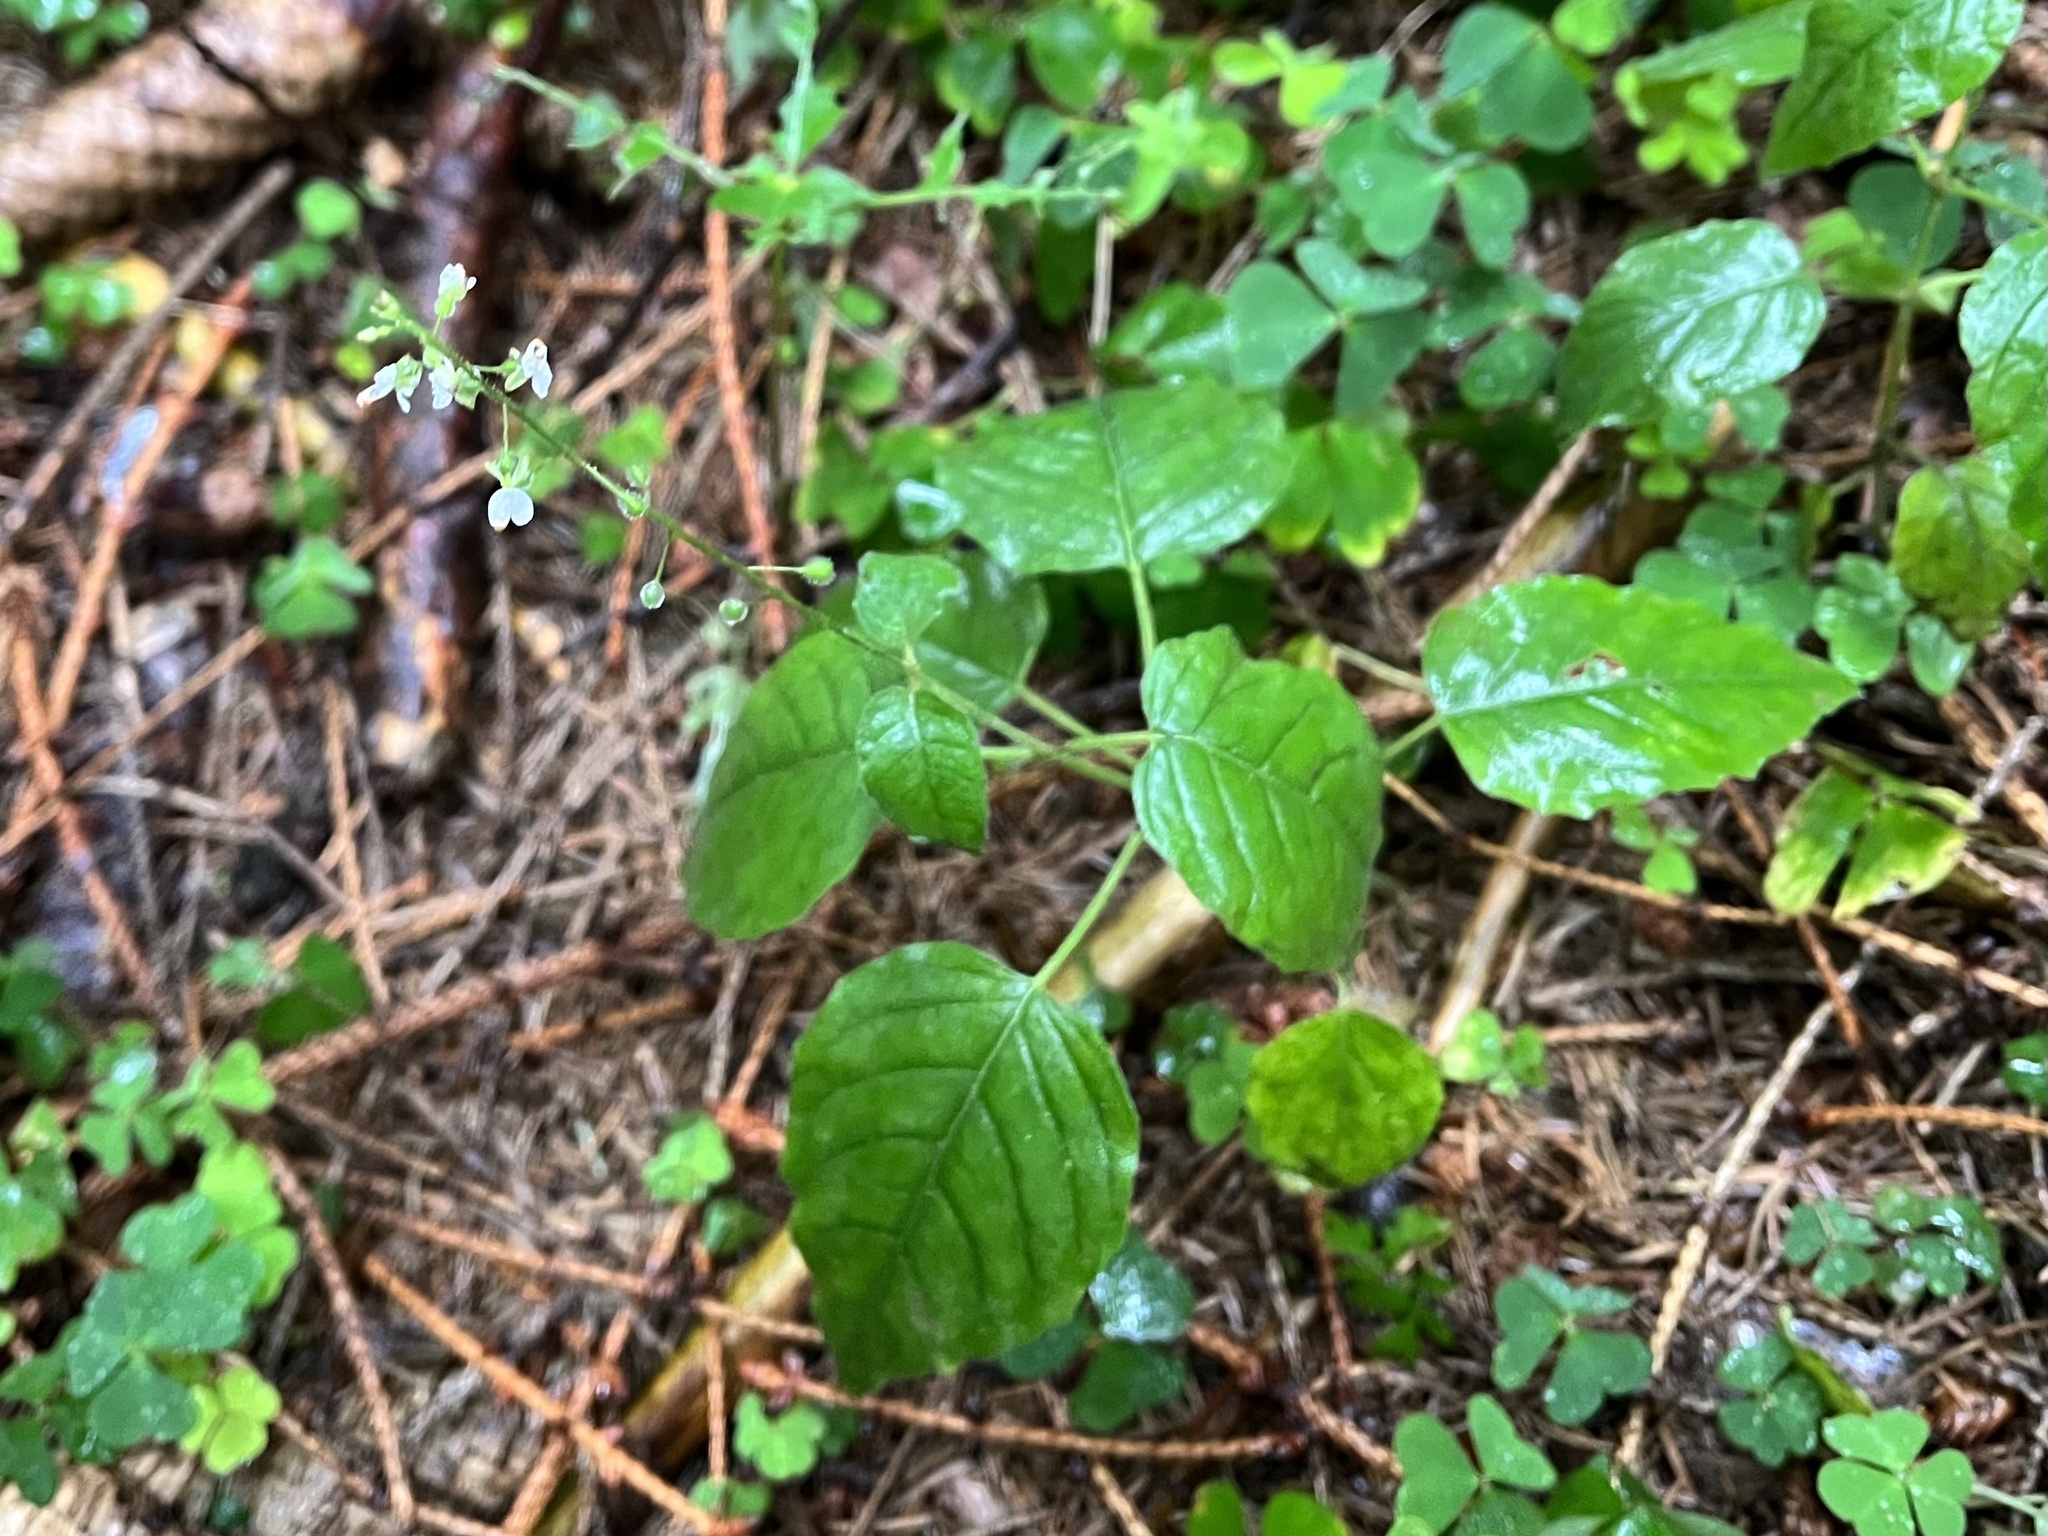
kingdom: Plantae
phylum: Tracheophyta
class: Magnoliopsida
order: Myrtales
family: Onagraceae
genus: Circaea
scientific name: Circaea lutetiana
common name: Enchanter's-nightshade
